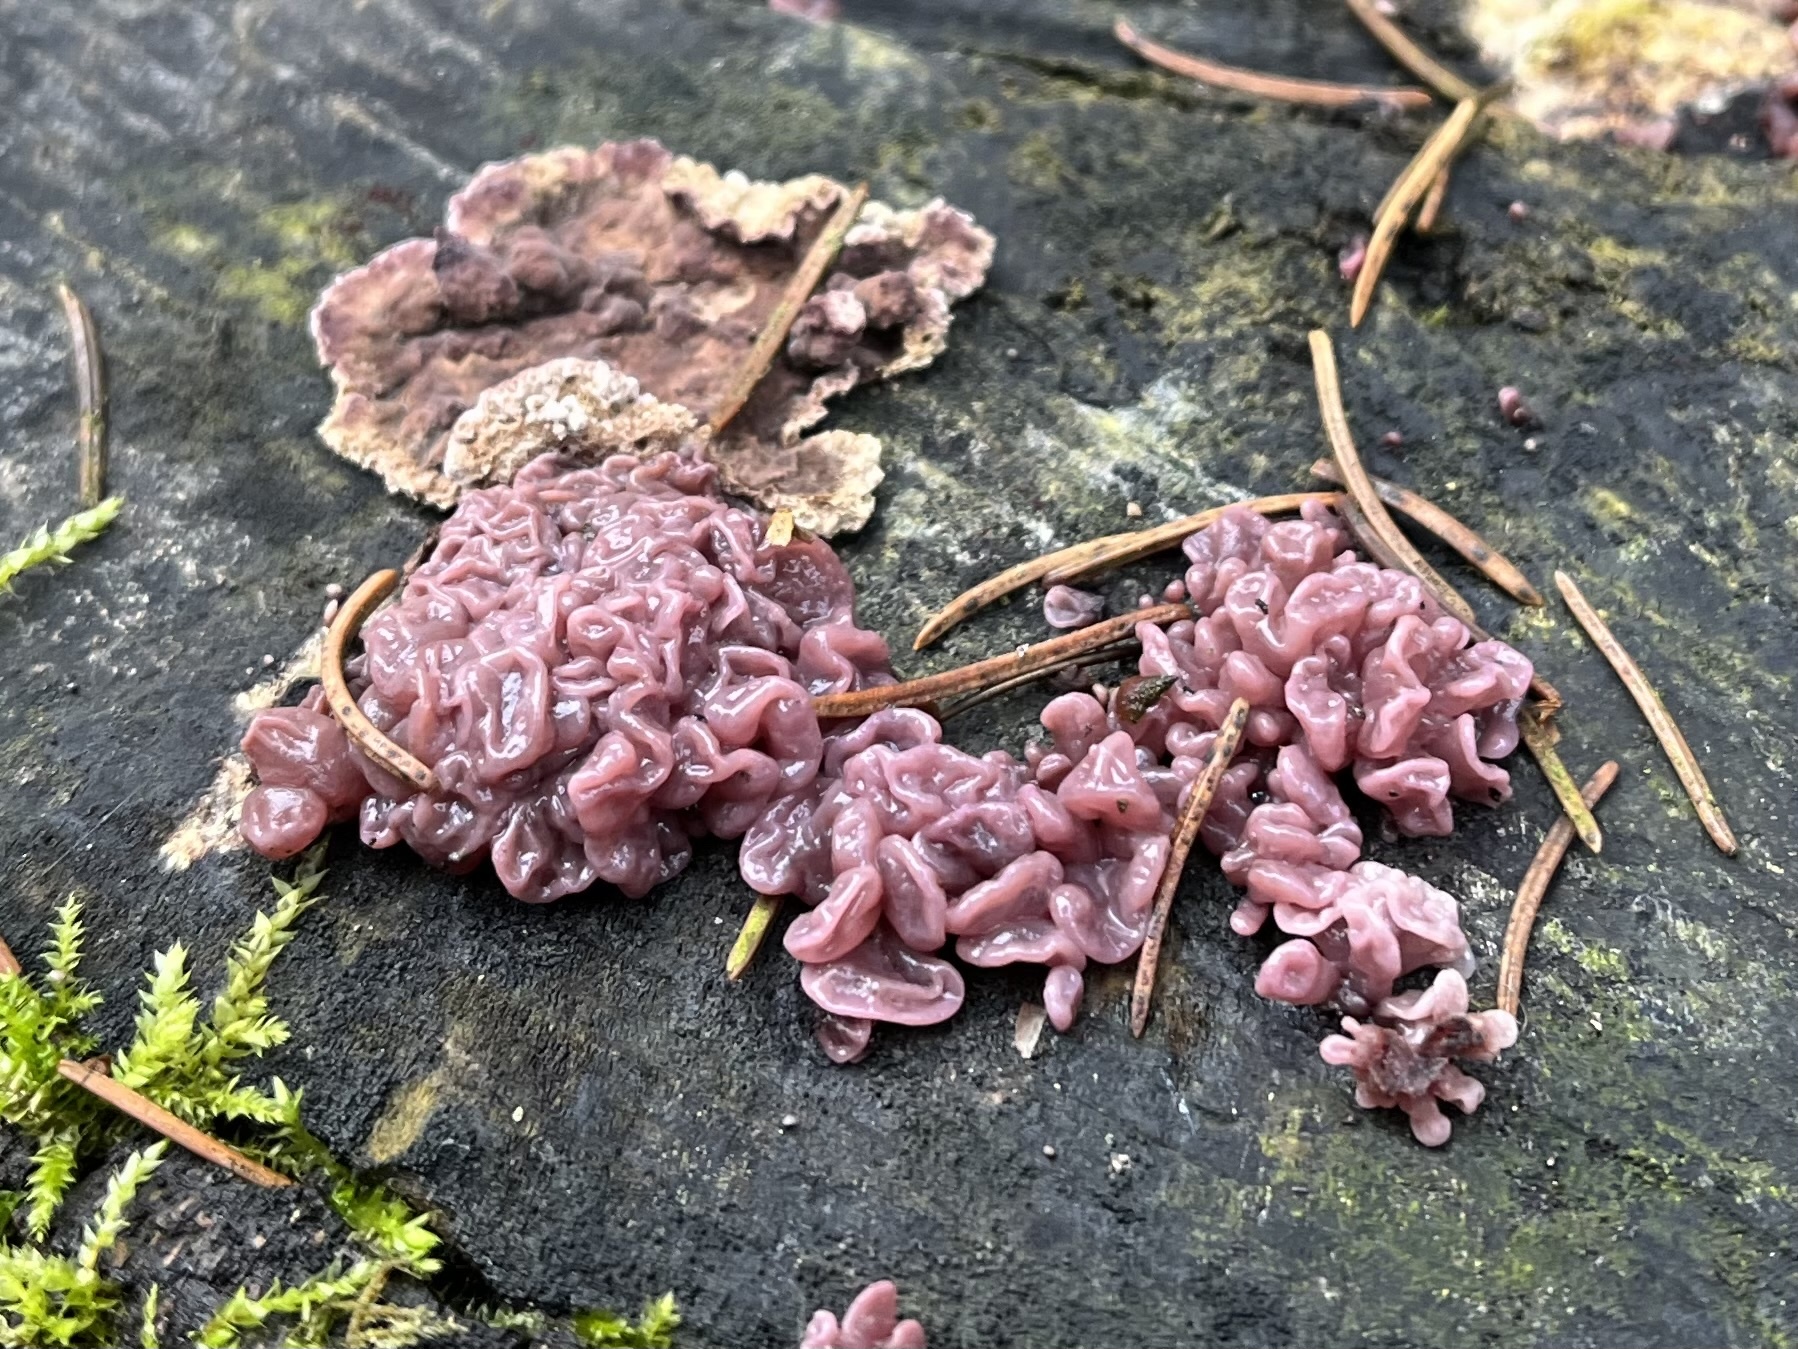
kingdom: Fungi
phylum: Ascomycota
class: Leotiomycetes
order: Helotiales
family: Gelatinodiscaceae
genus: Ascocoryne
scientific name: Ascocoryne sarcoides
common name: Purple jellydisc
